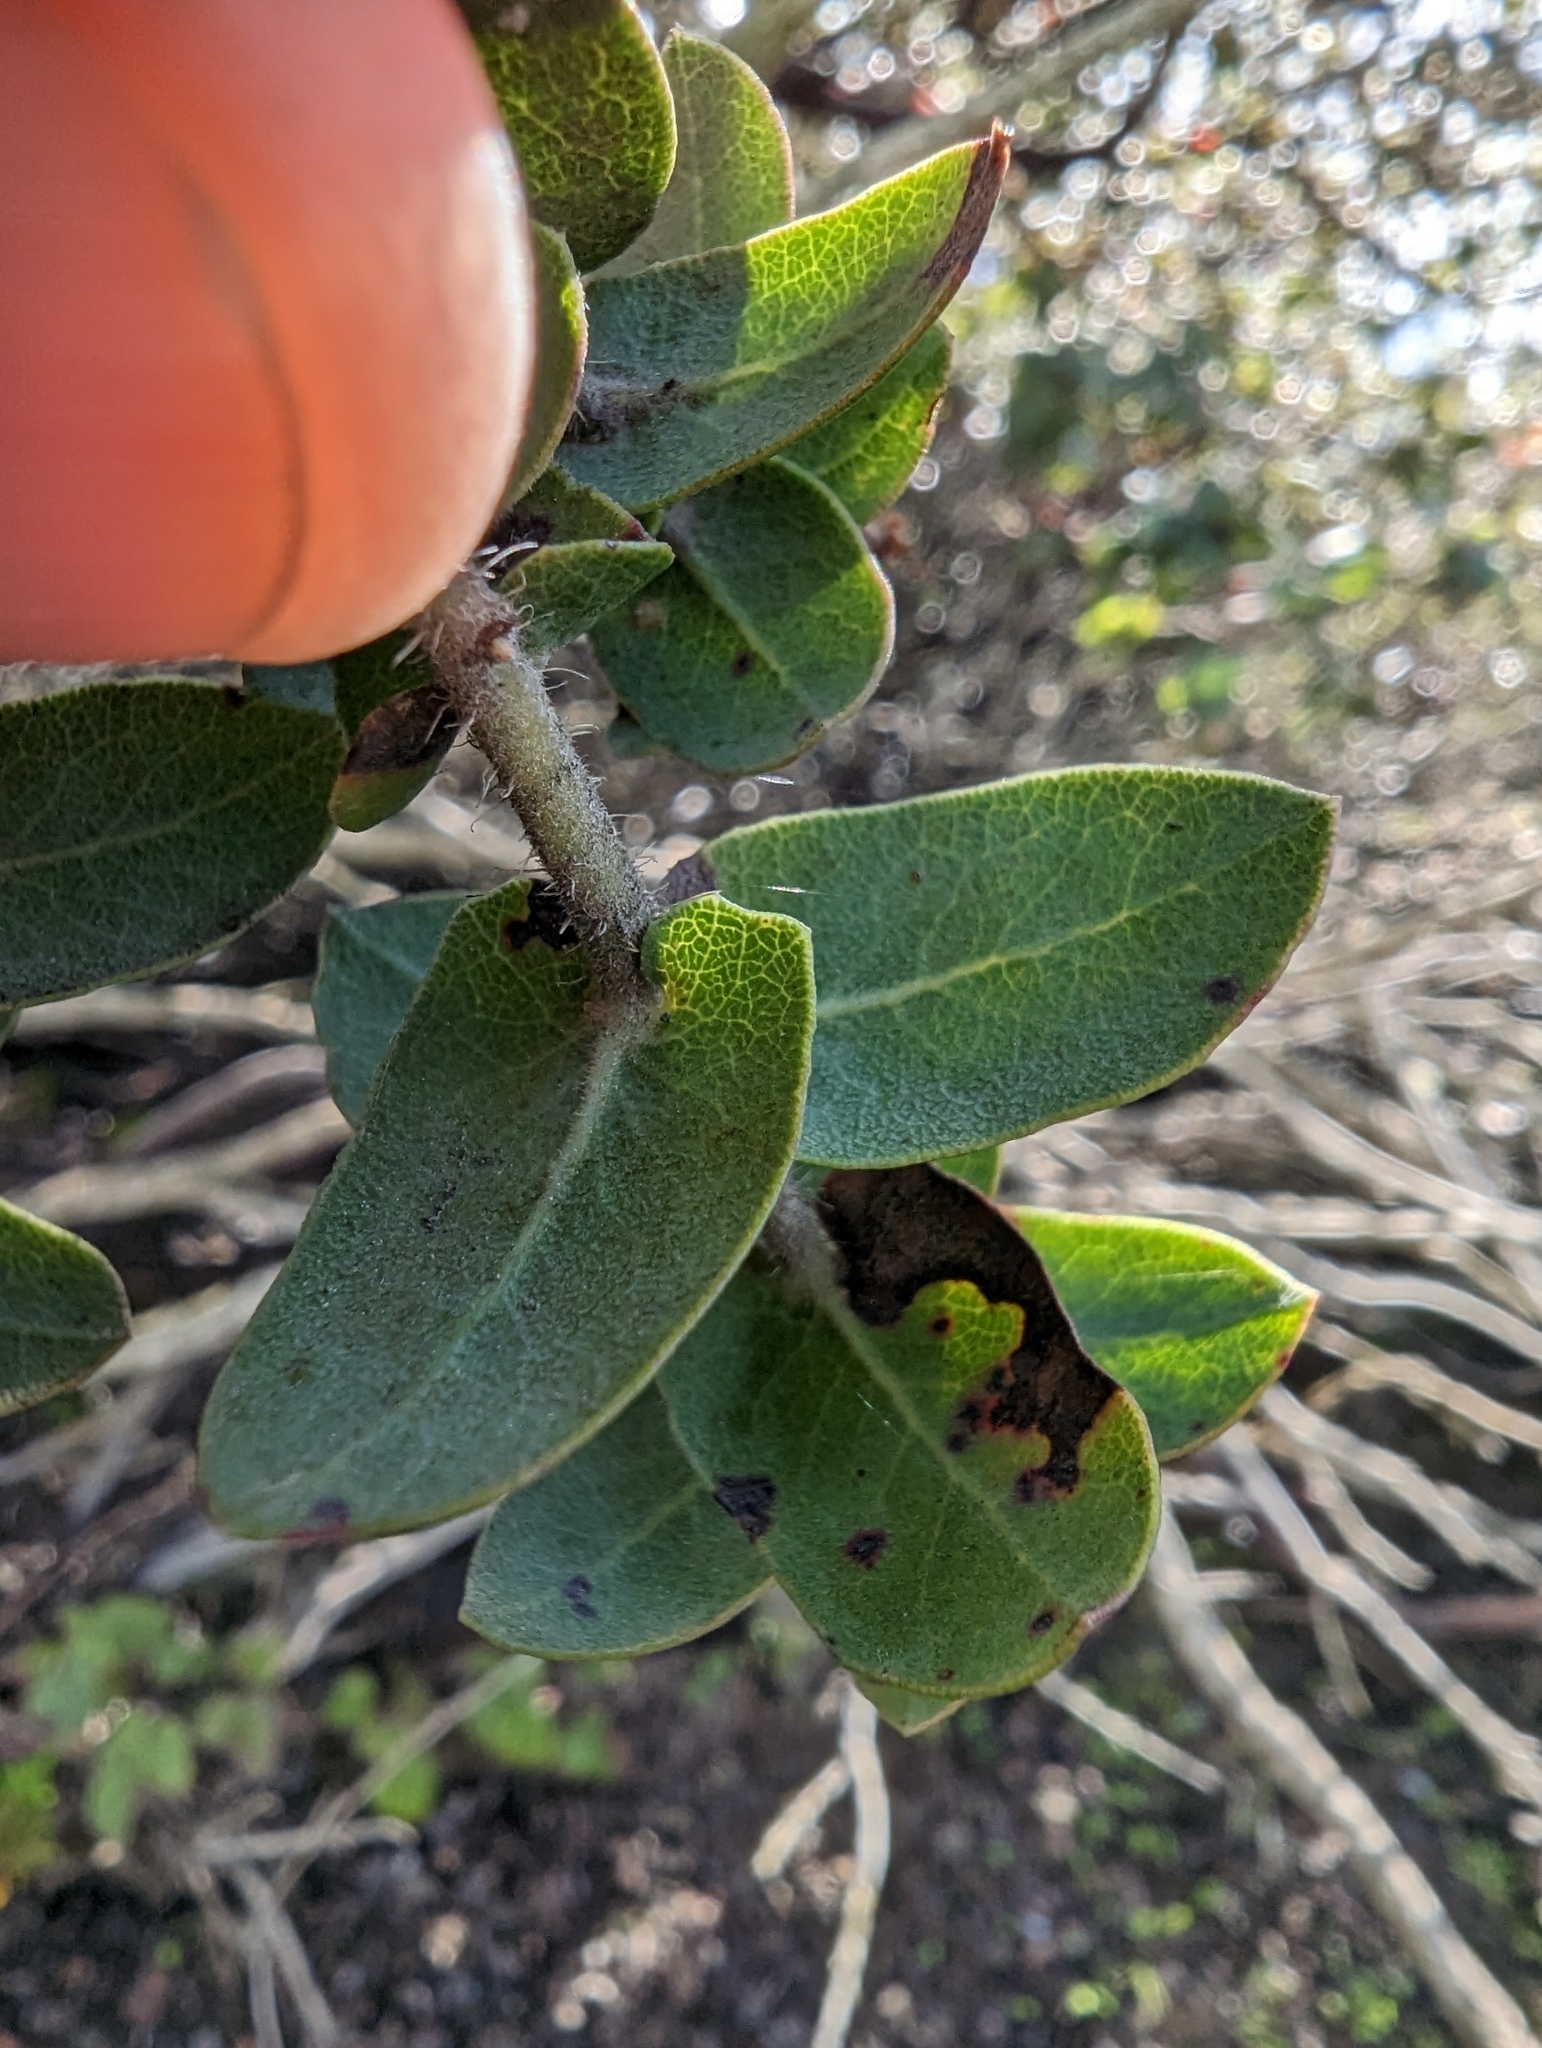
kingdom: Plantae
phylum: Tracheophyta
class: Magnoliopsida
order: Ericales
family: Ericaceae
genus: Arctostaphylos
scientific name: Arctostaphylos pajaroensis
